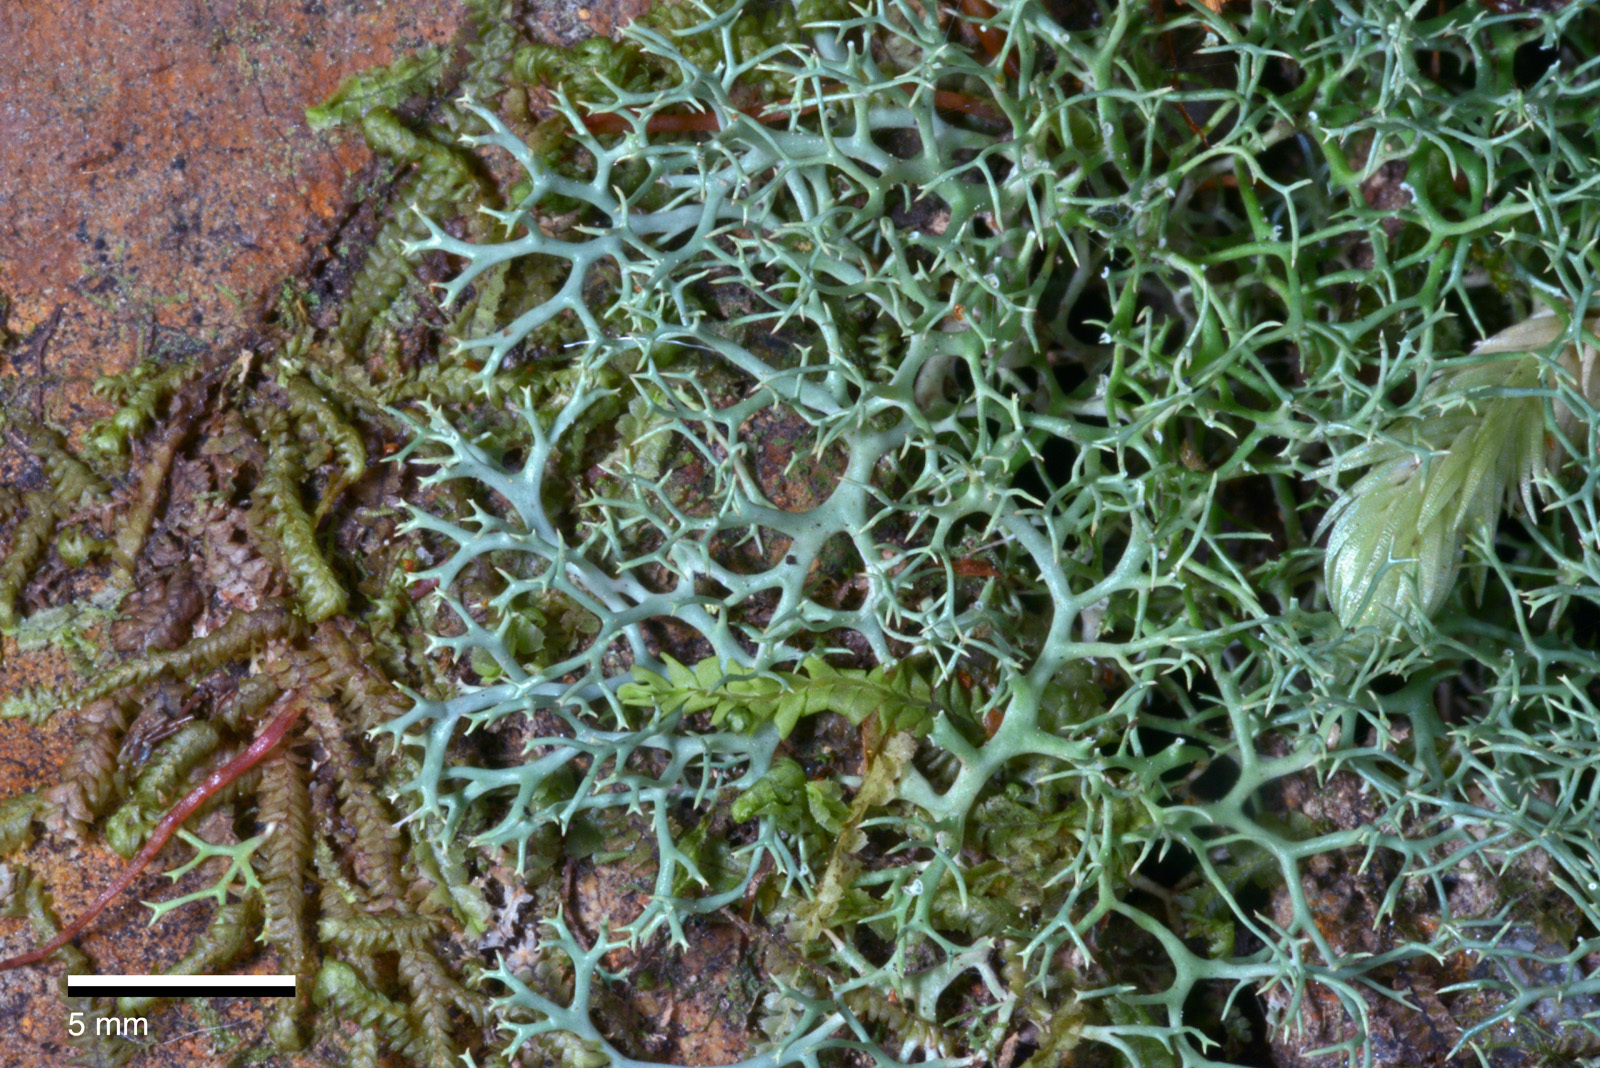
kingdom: Fungi
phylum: Ascomycota
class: Lecanoromycetes
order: Lecanorales
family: Cladoniaceae
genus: Cladia
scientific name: Cladia aggregata
